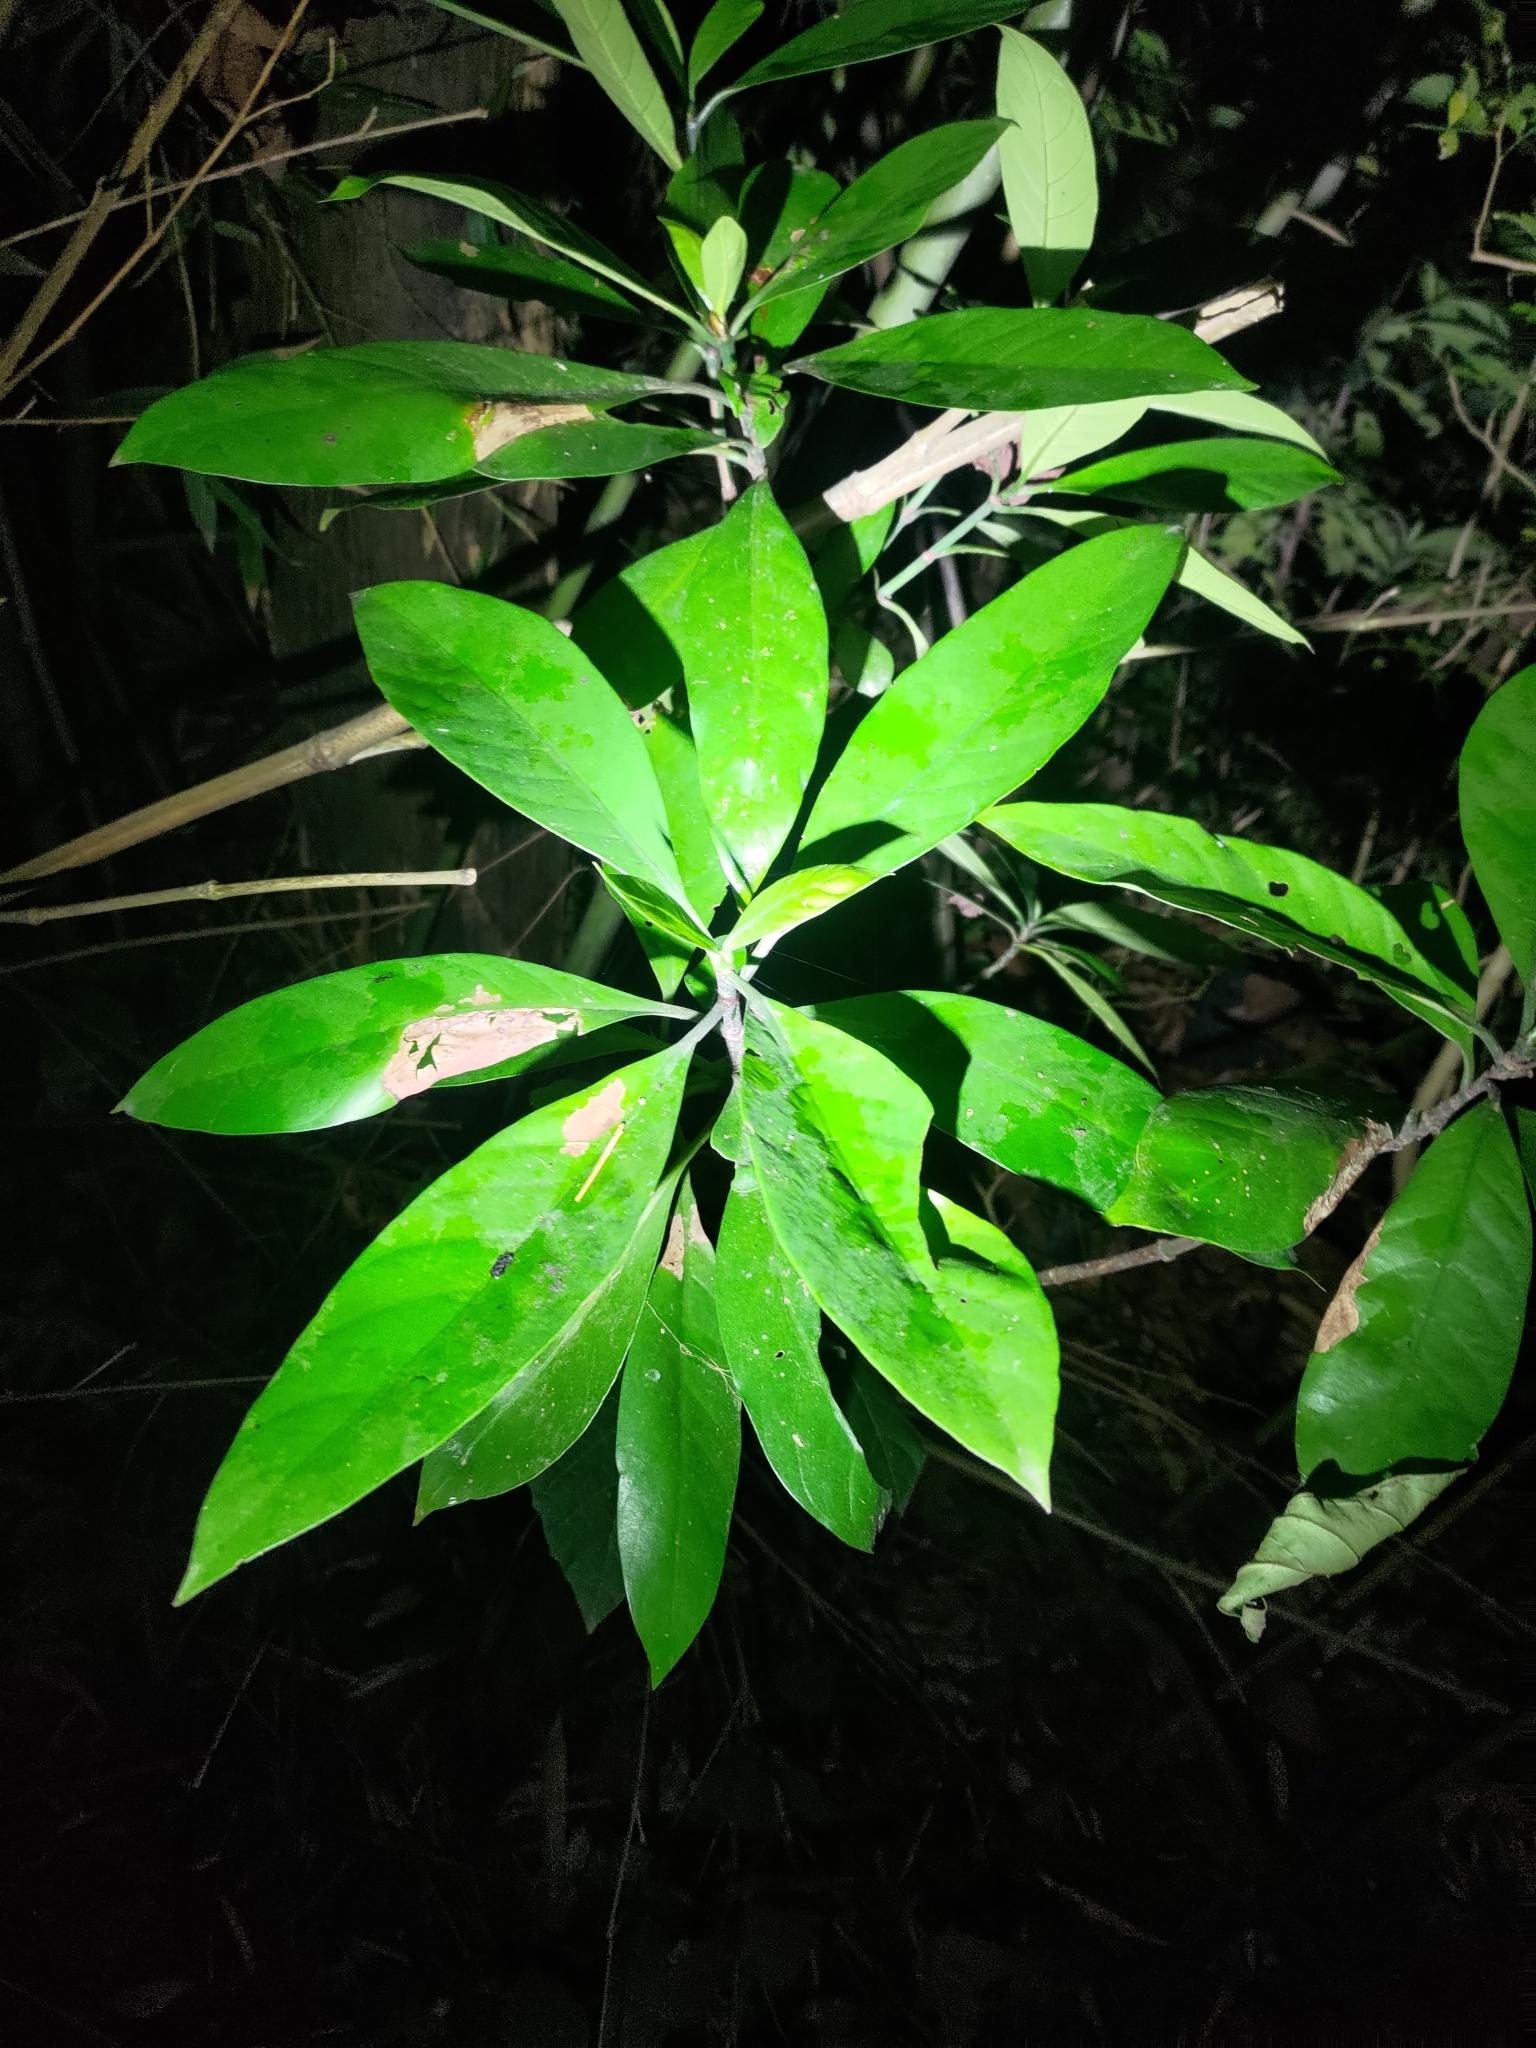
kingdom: Plantae
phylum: Tracheophyta
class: Magnoliopsida
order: Gentianales
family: Rubiaceae
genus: Psychotria
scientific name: Psychotria asiatica
